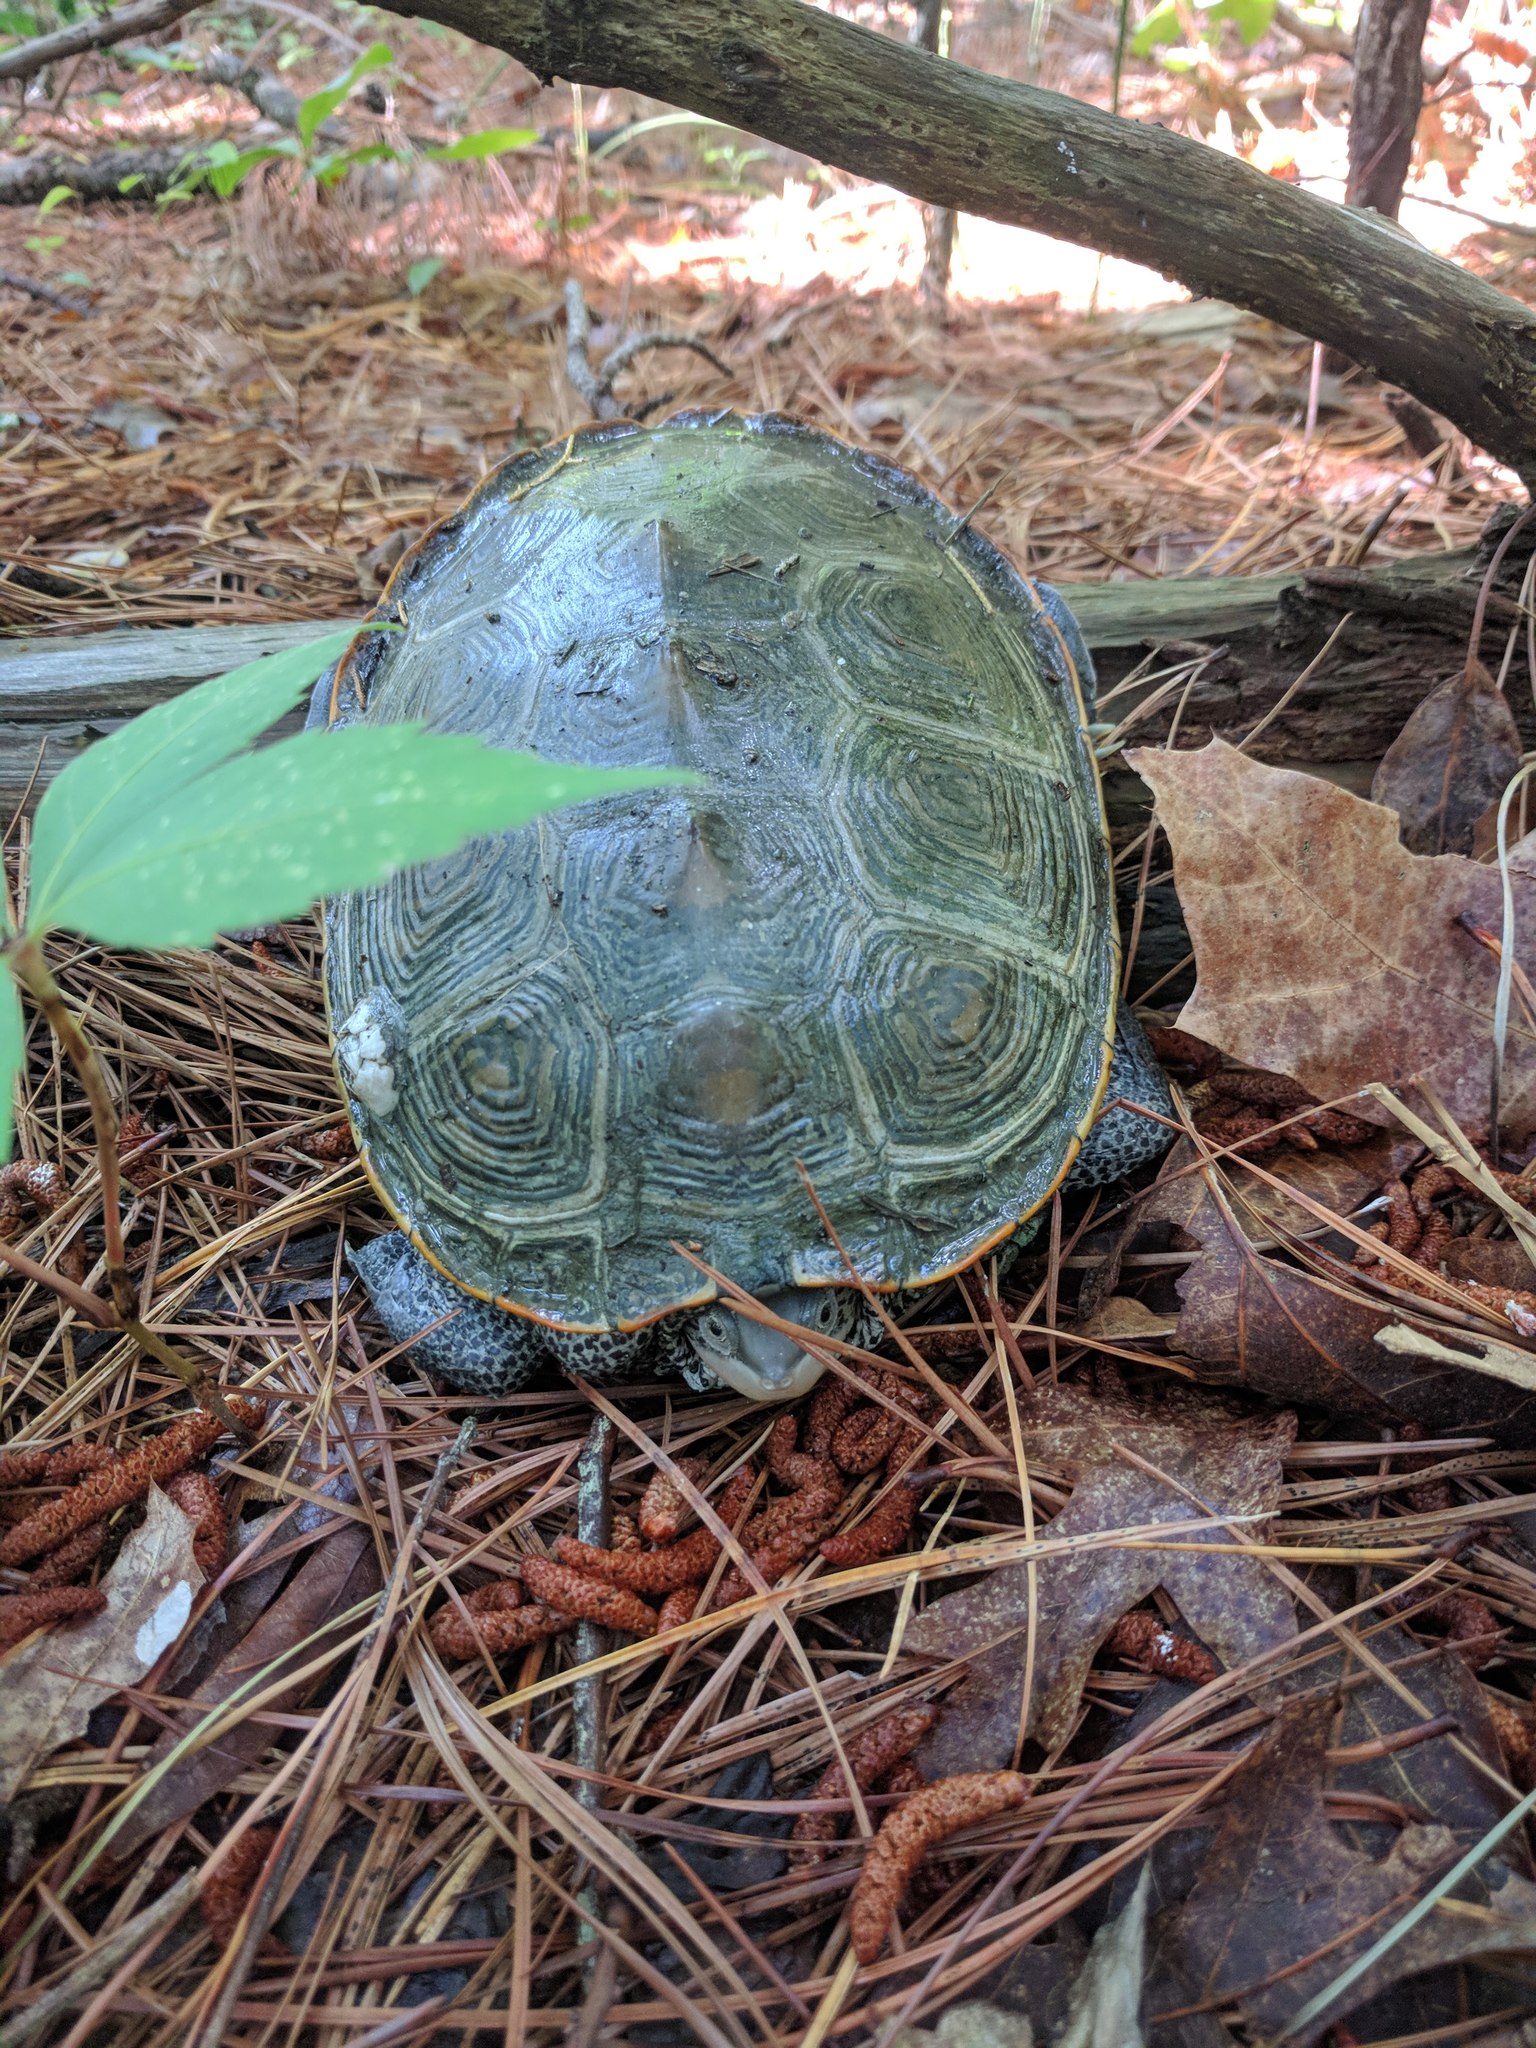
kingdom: Animalia
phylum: Chordata
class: Testudines
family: Emydidae
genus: Malaclemys
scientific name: Malaclemys terrapin
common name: Diamondback terrapin
